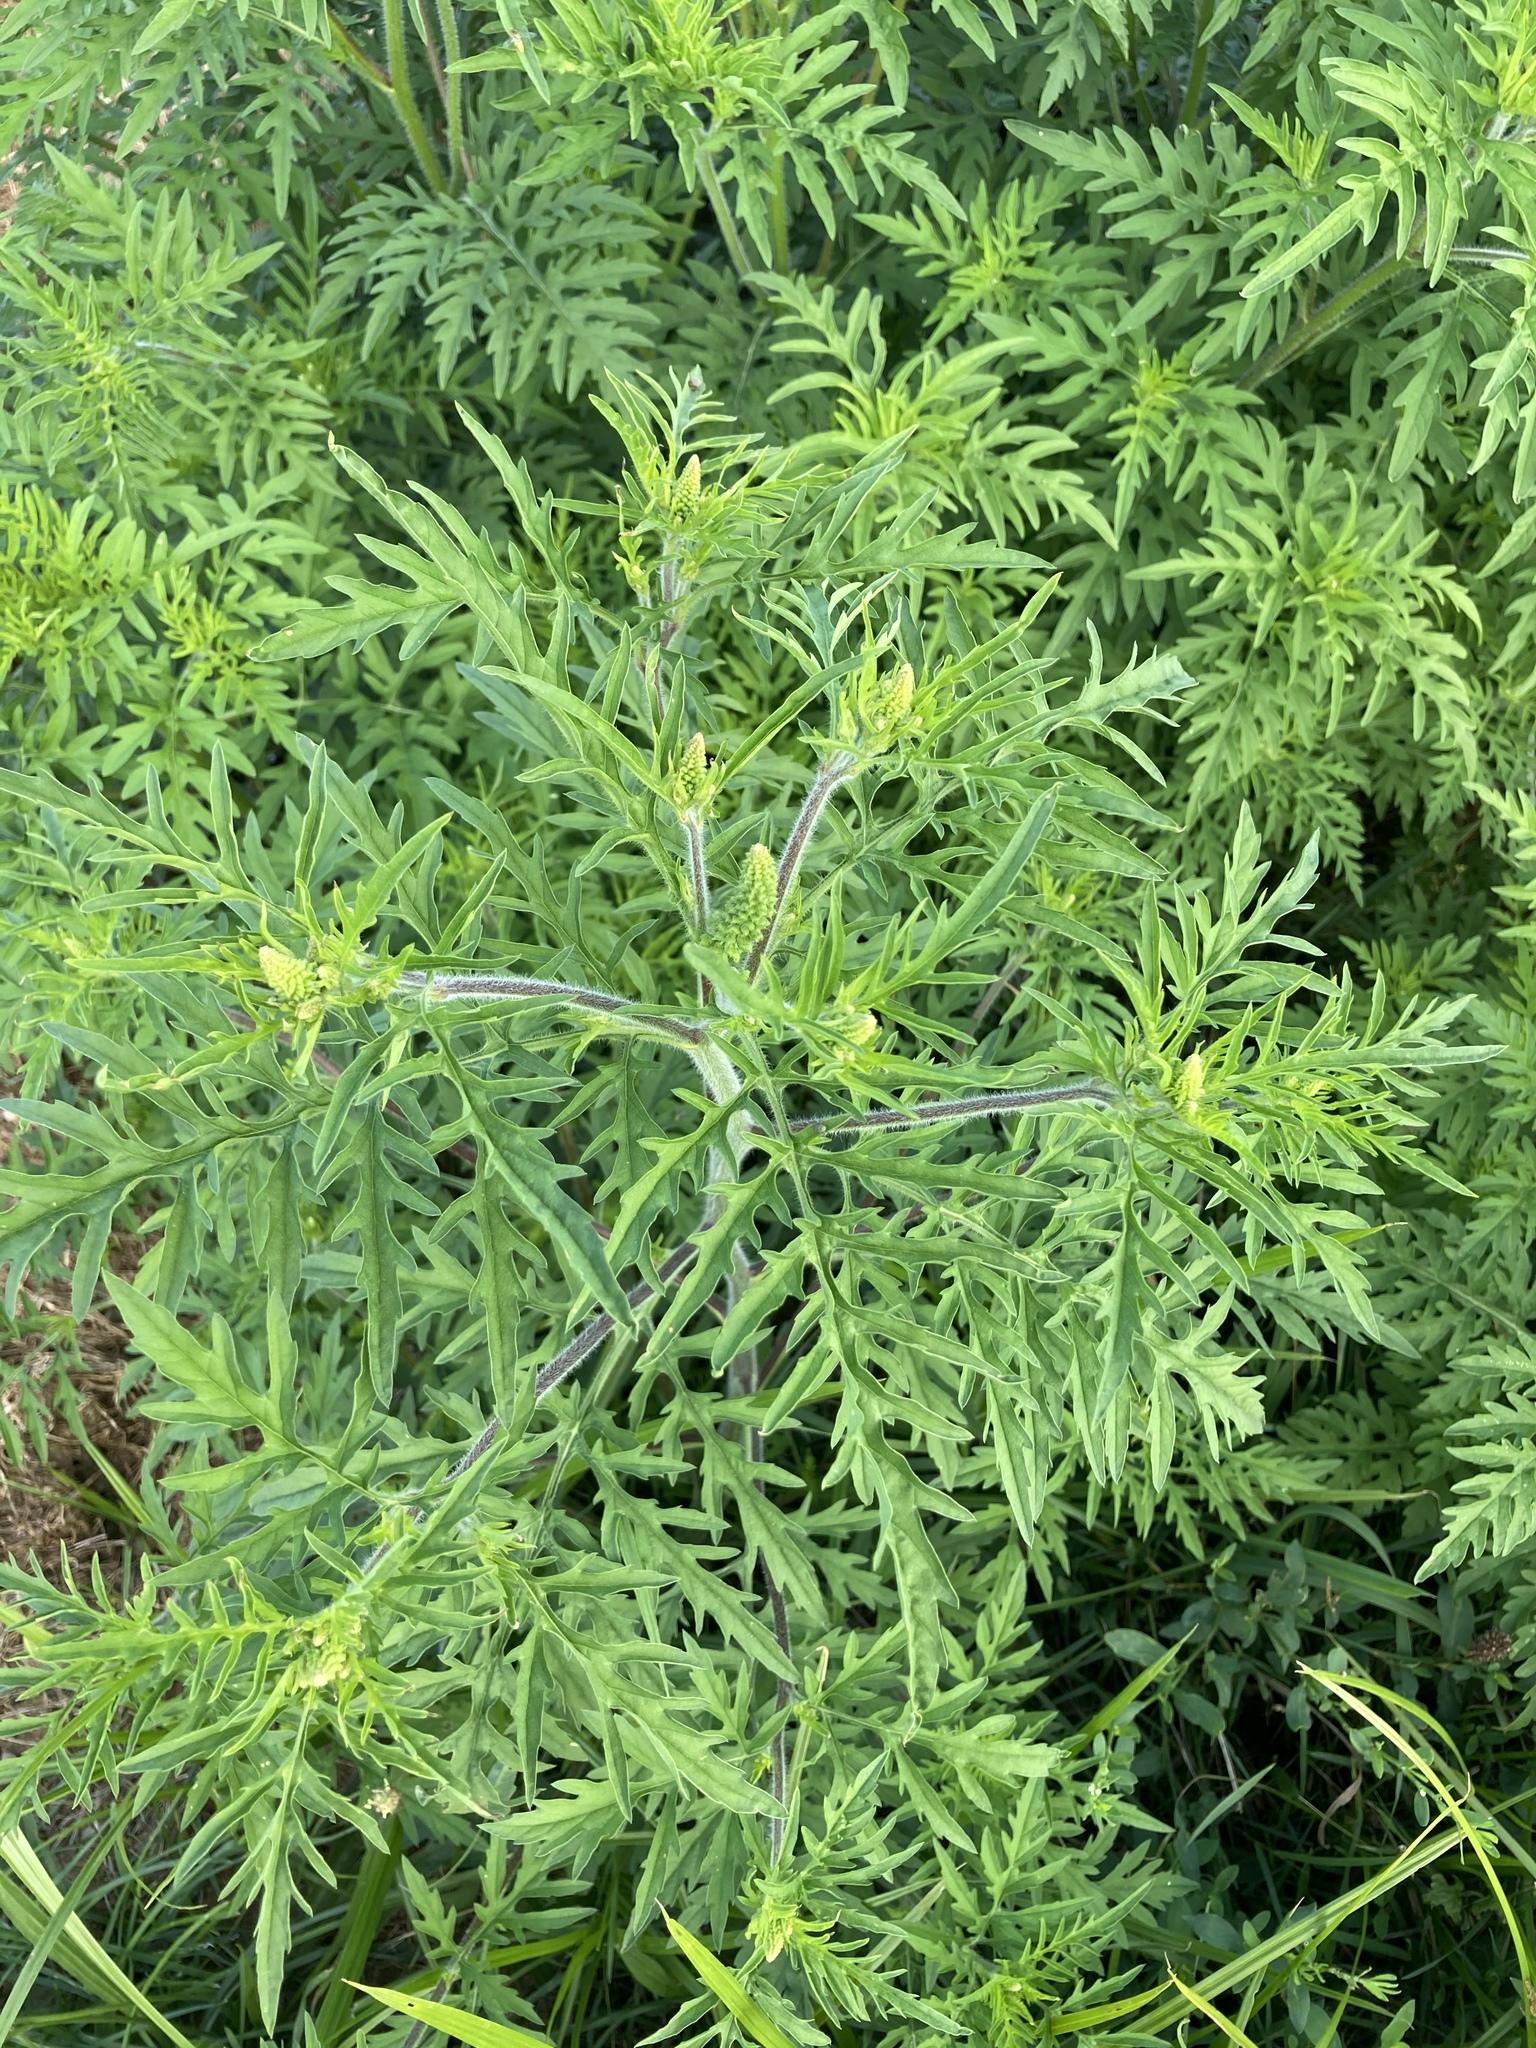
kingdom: Plantae
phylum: Tracheophyta
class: Magnoliopsida
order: Asterales
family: Asteraceae
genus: Ambrosia
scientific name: Ambrosia artemisiifolia
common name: Annual ragweed
